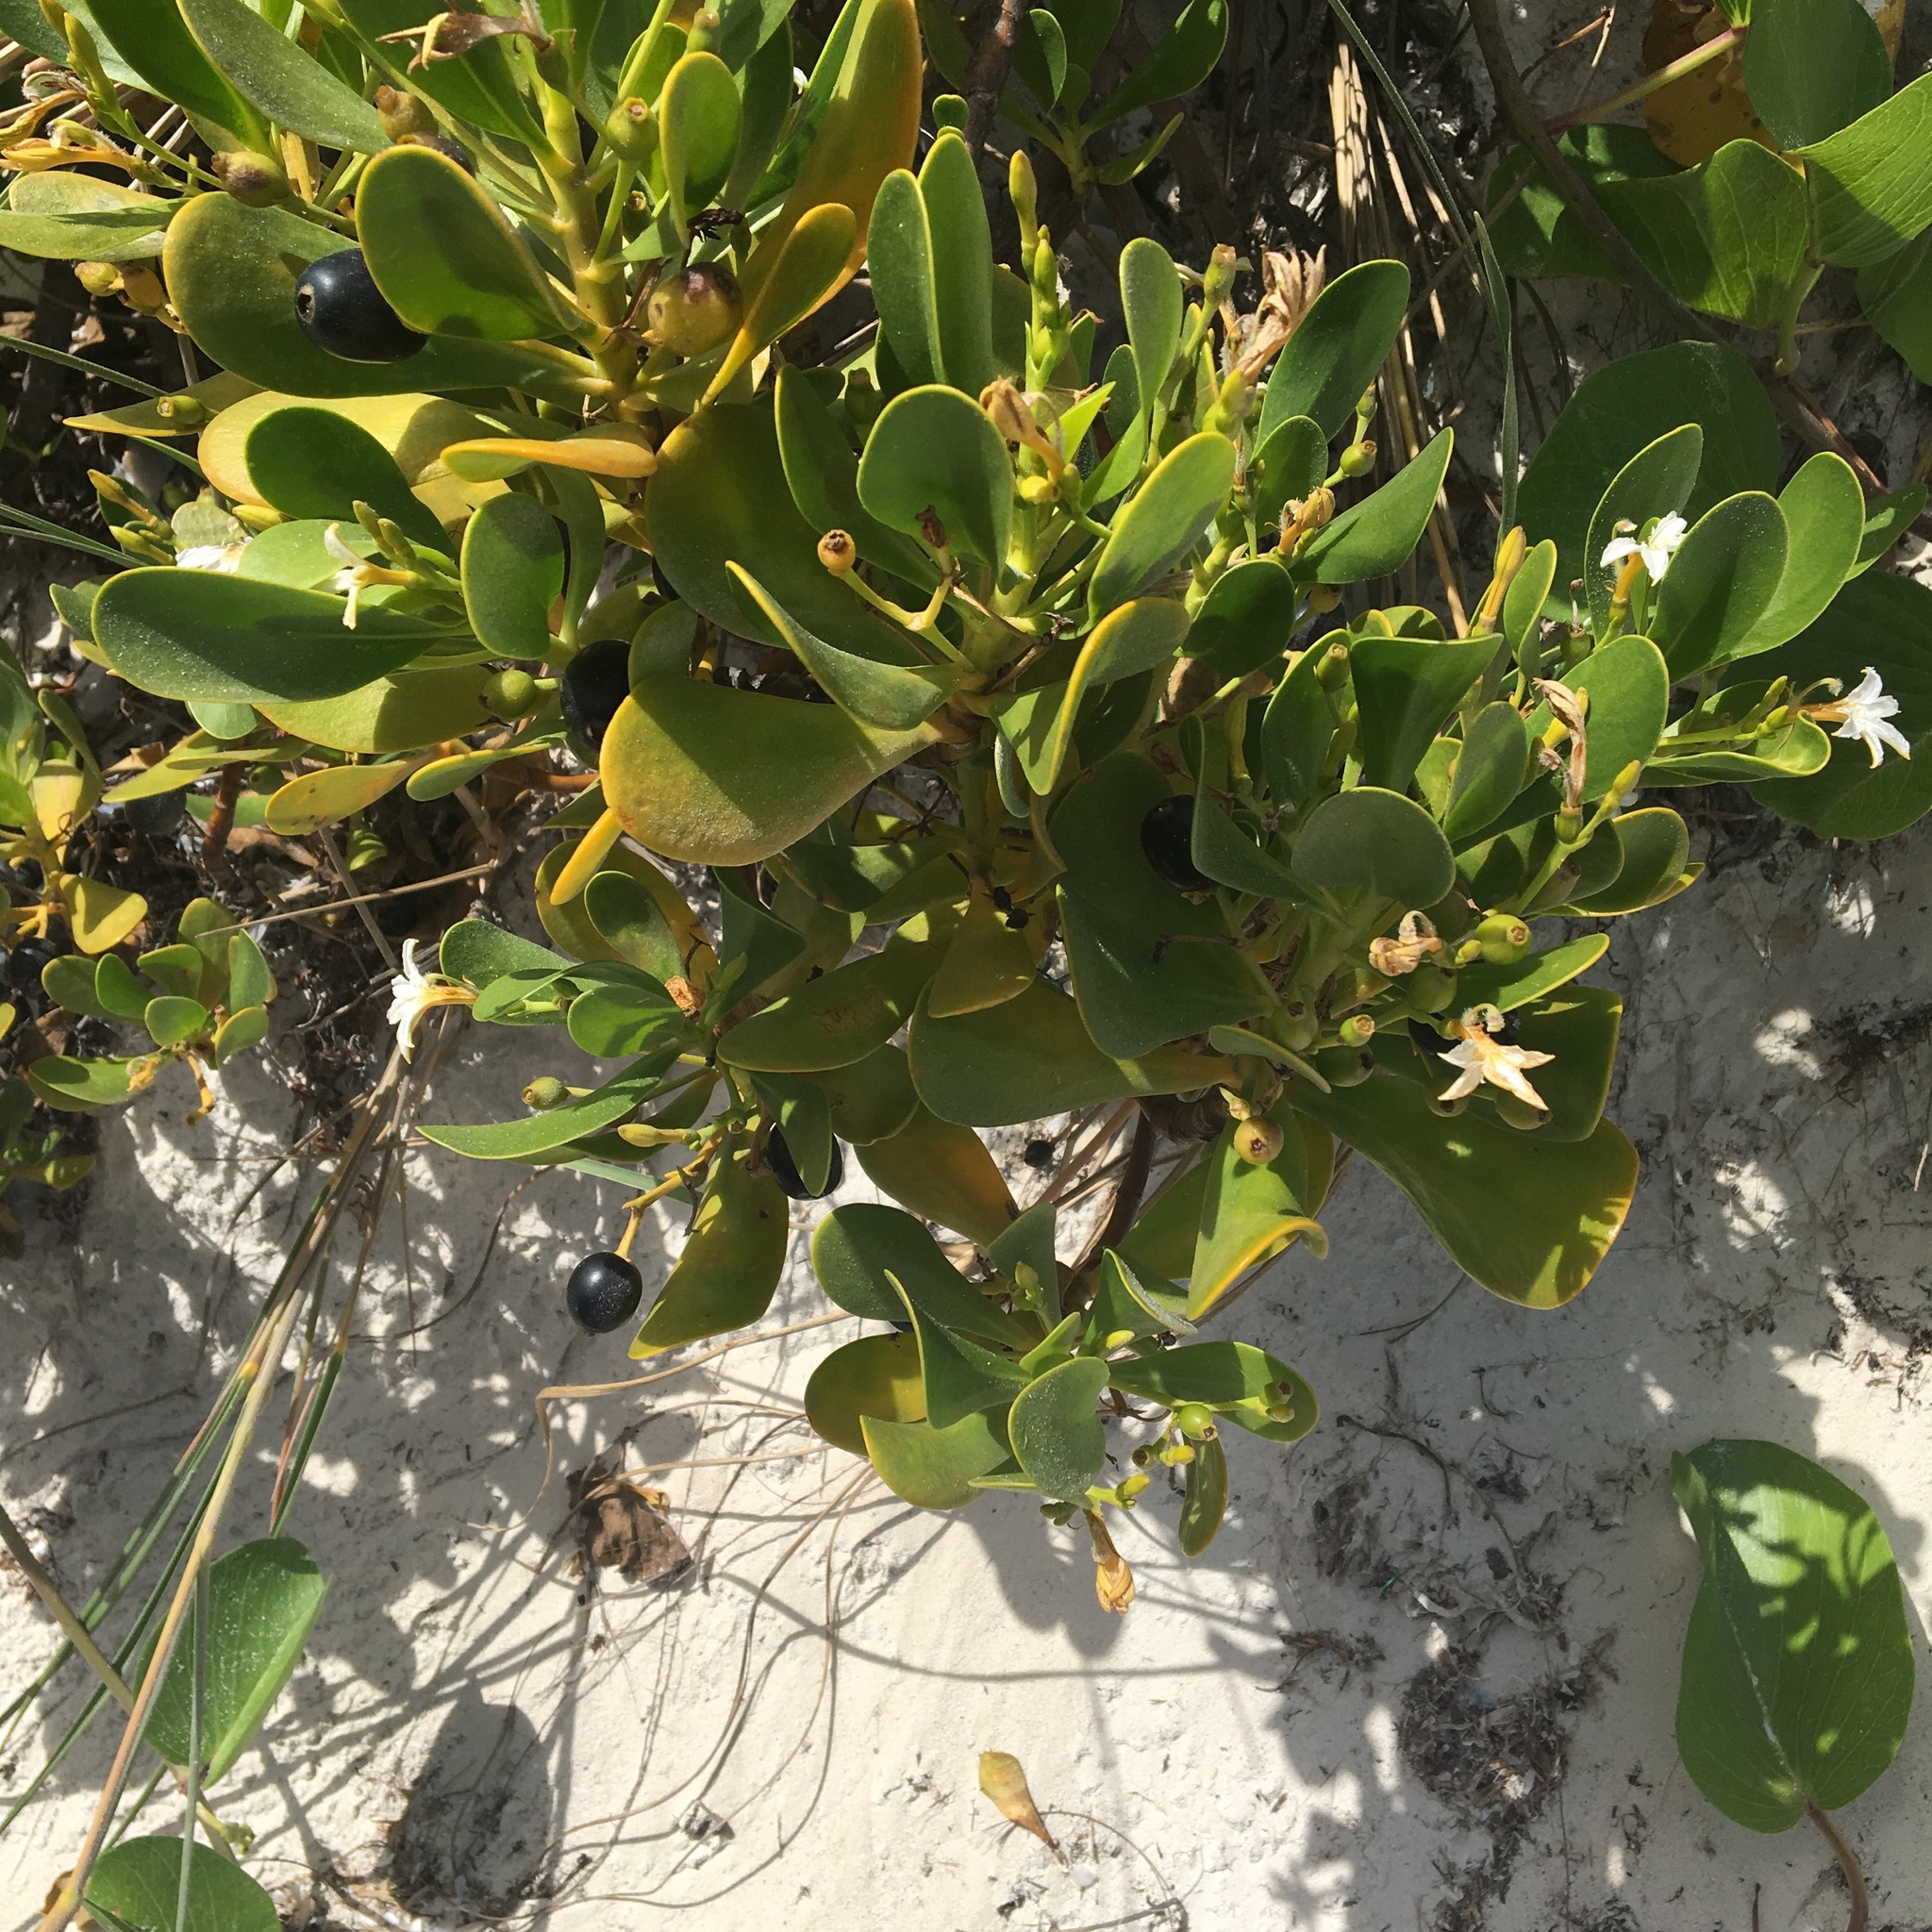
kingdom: Plantae
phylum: Tracheophyta
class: Magnoliopsida
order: Asterales
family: Goodeniaceae
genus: Scaevola
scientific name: Scaevola plumieri
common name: Gull feed
